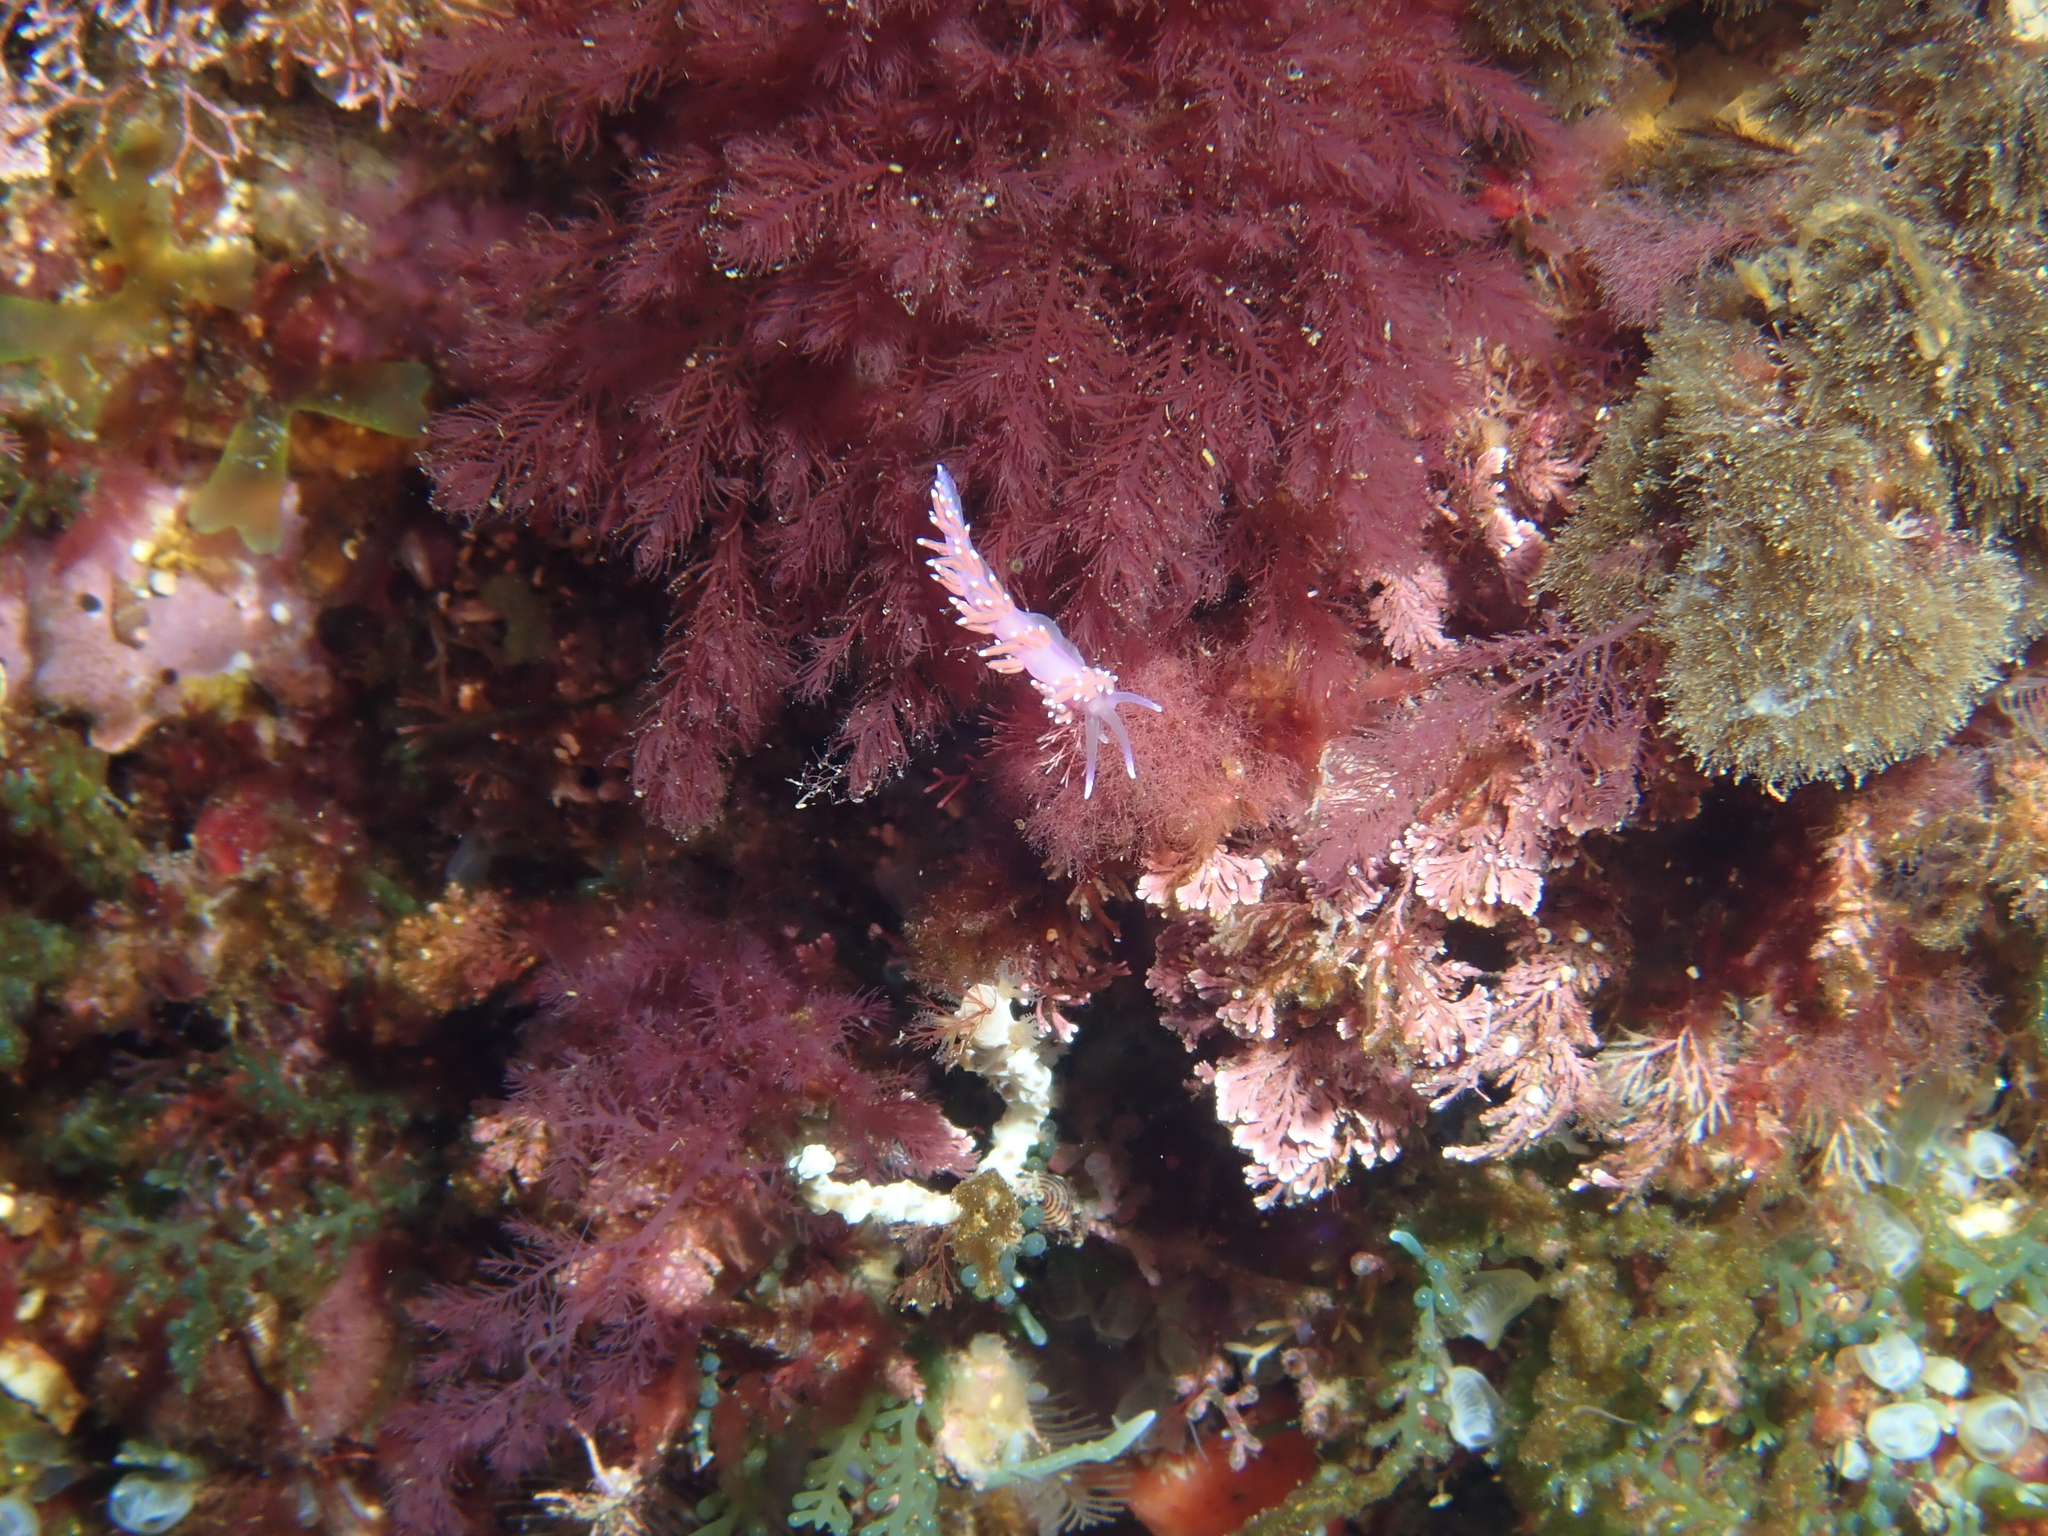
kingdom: Animalia
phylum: Mollusca
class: Gastropoda
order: Nudibranchia
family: Flabellinidae
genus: Edmundsella
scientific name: Edmundsella pedata
